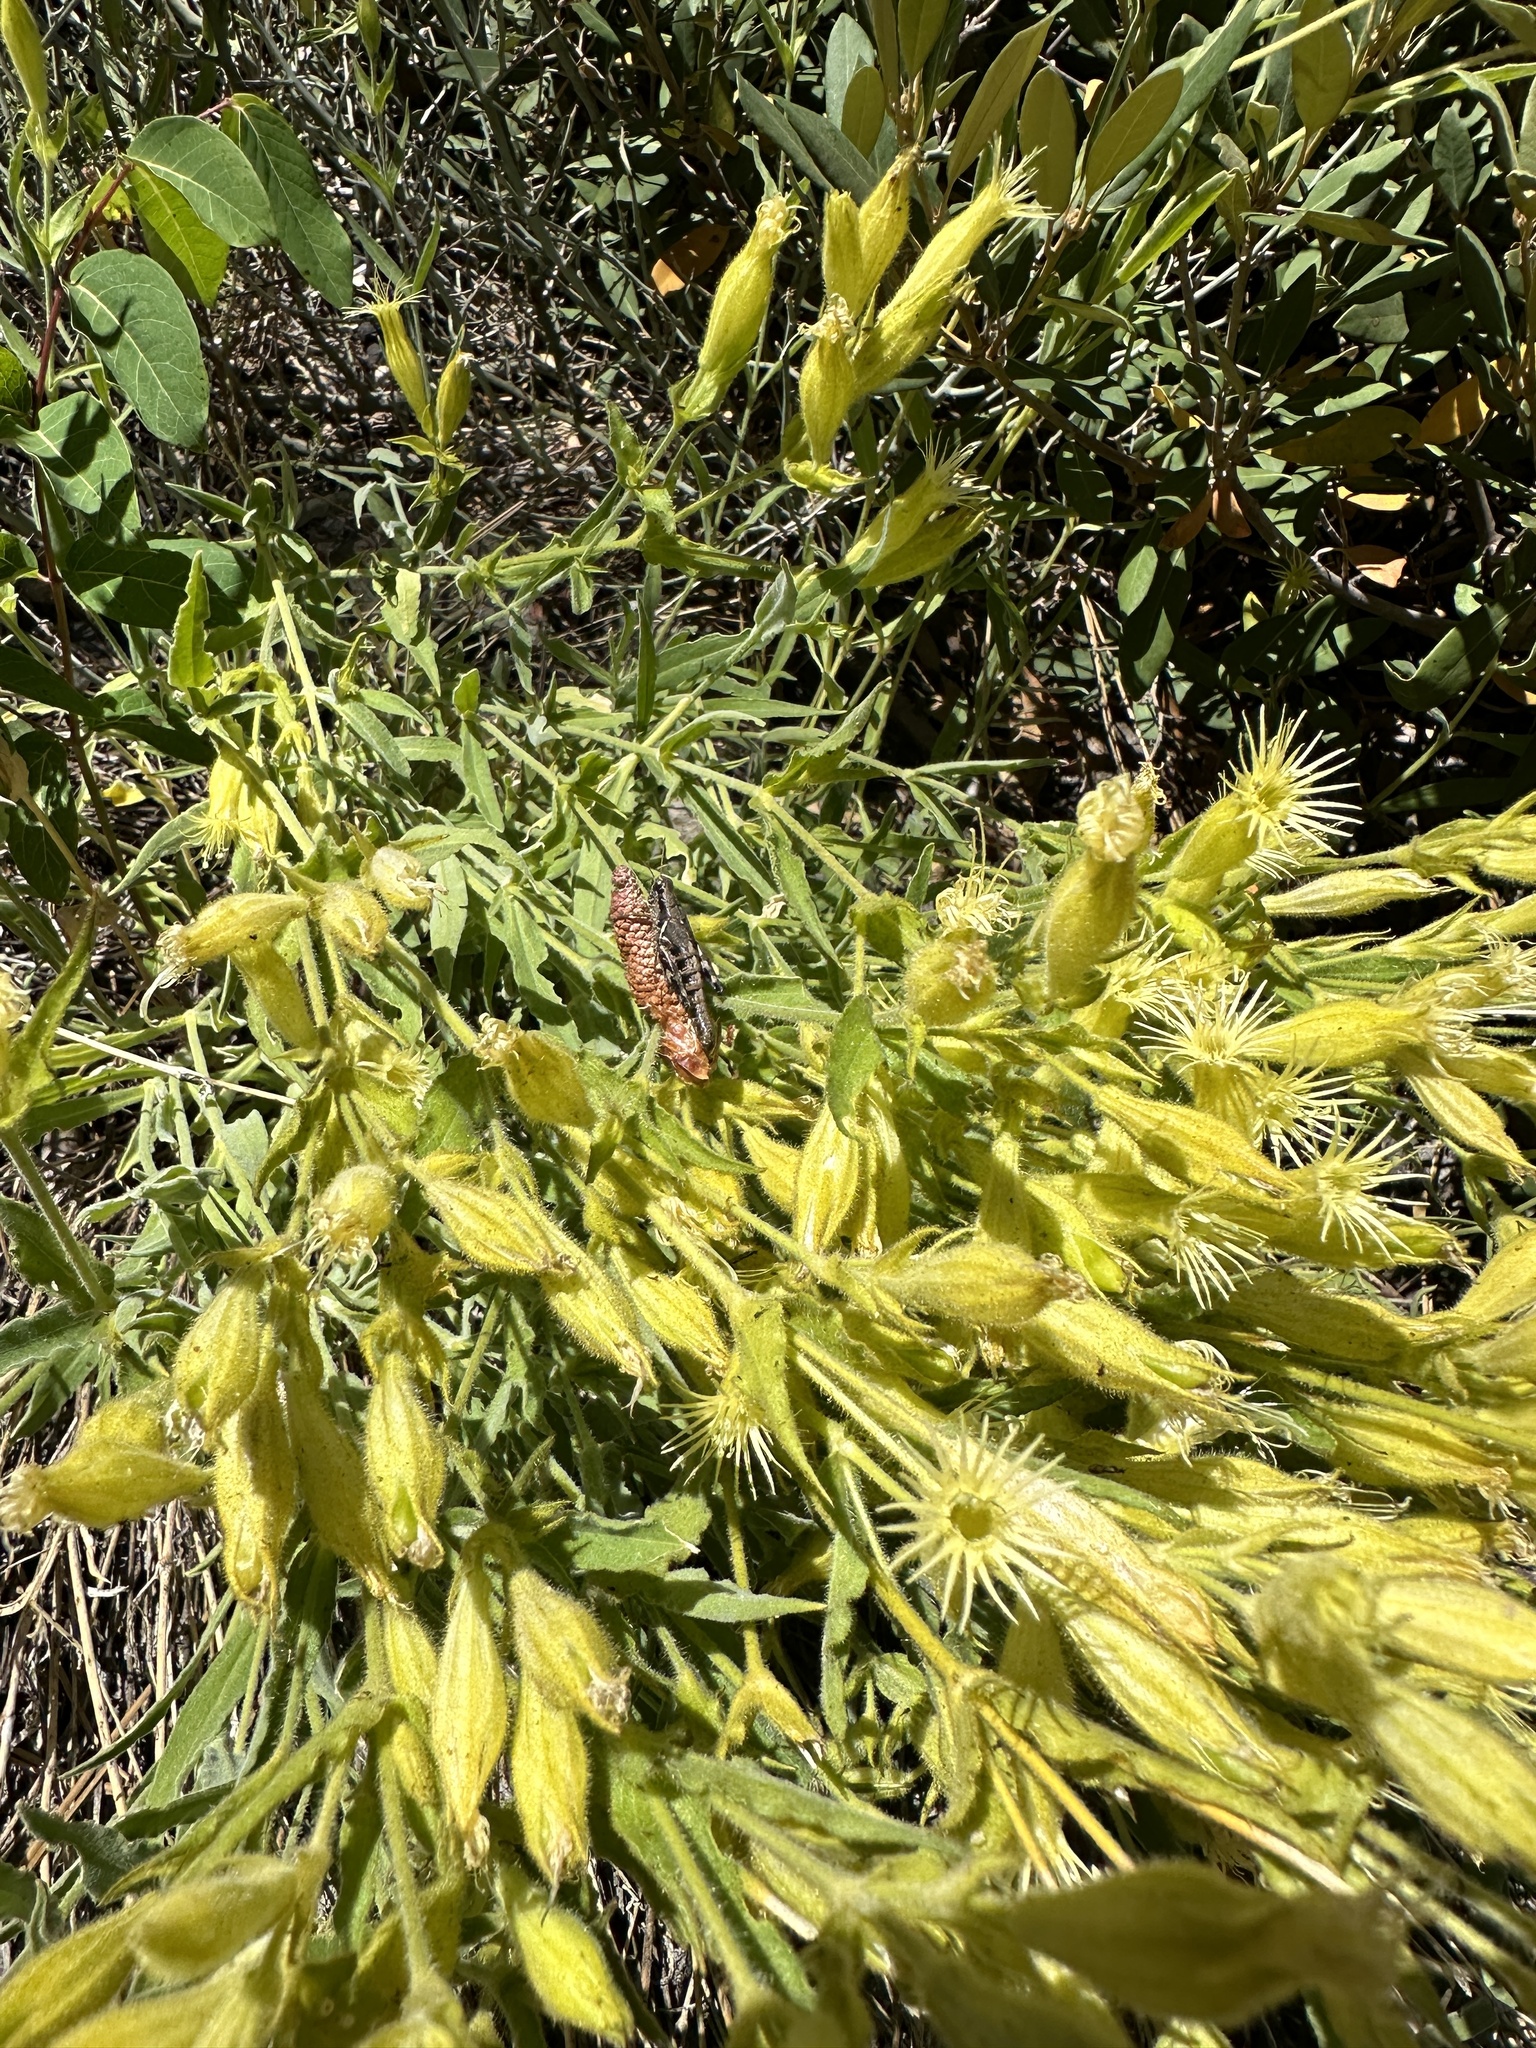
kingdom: Plantae
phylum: Tracheophyta
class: Magnoliopsida
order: Caryophyllales
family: Caryophyllaceae
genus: Silene
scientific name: Silene parishii
